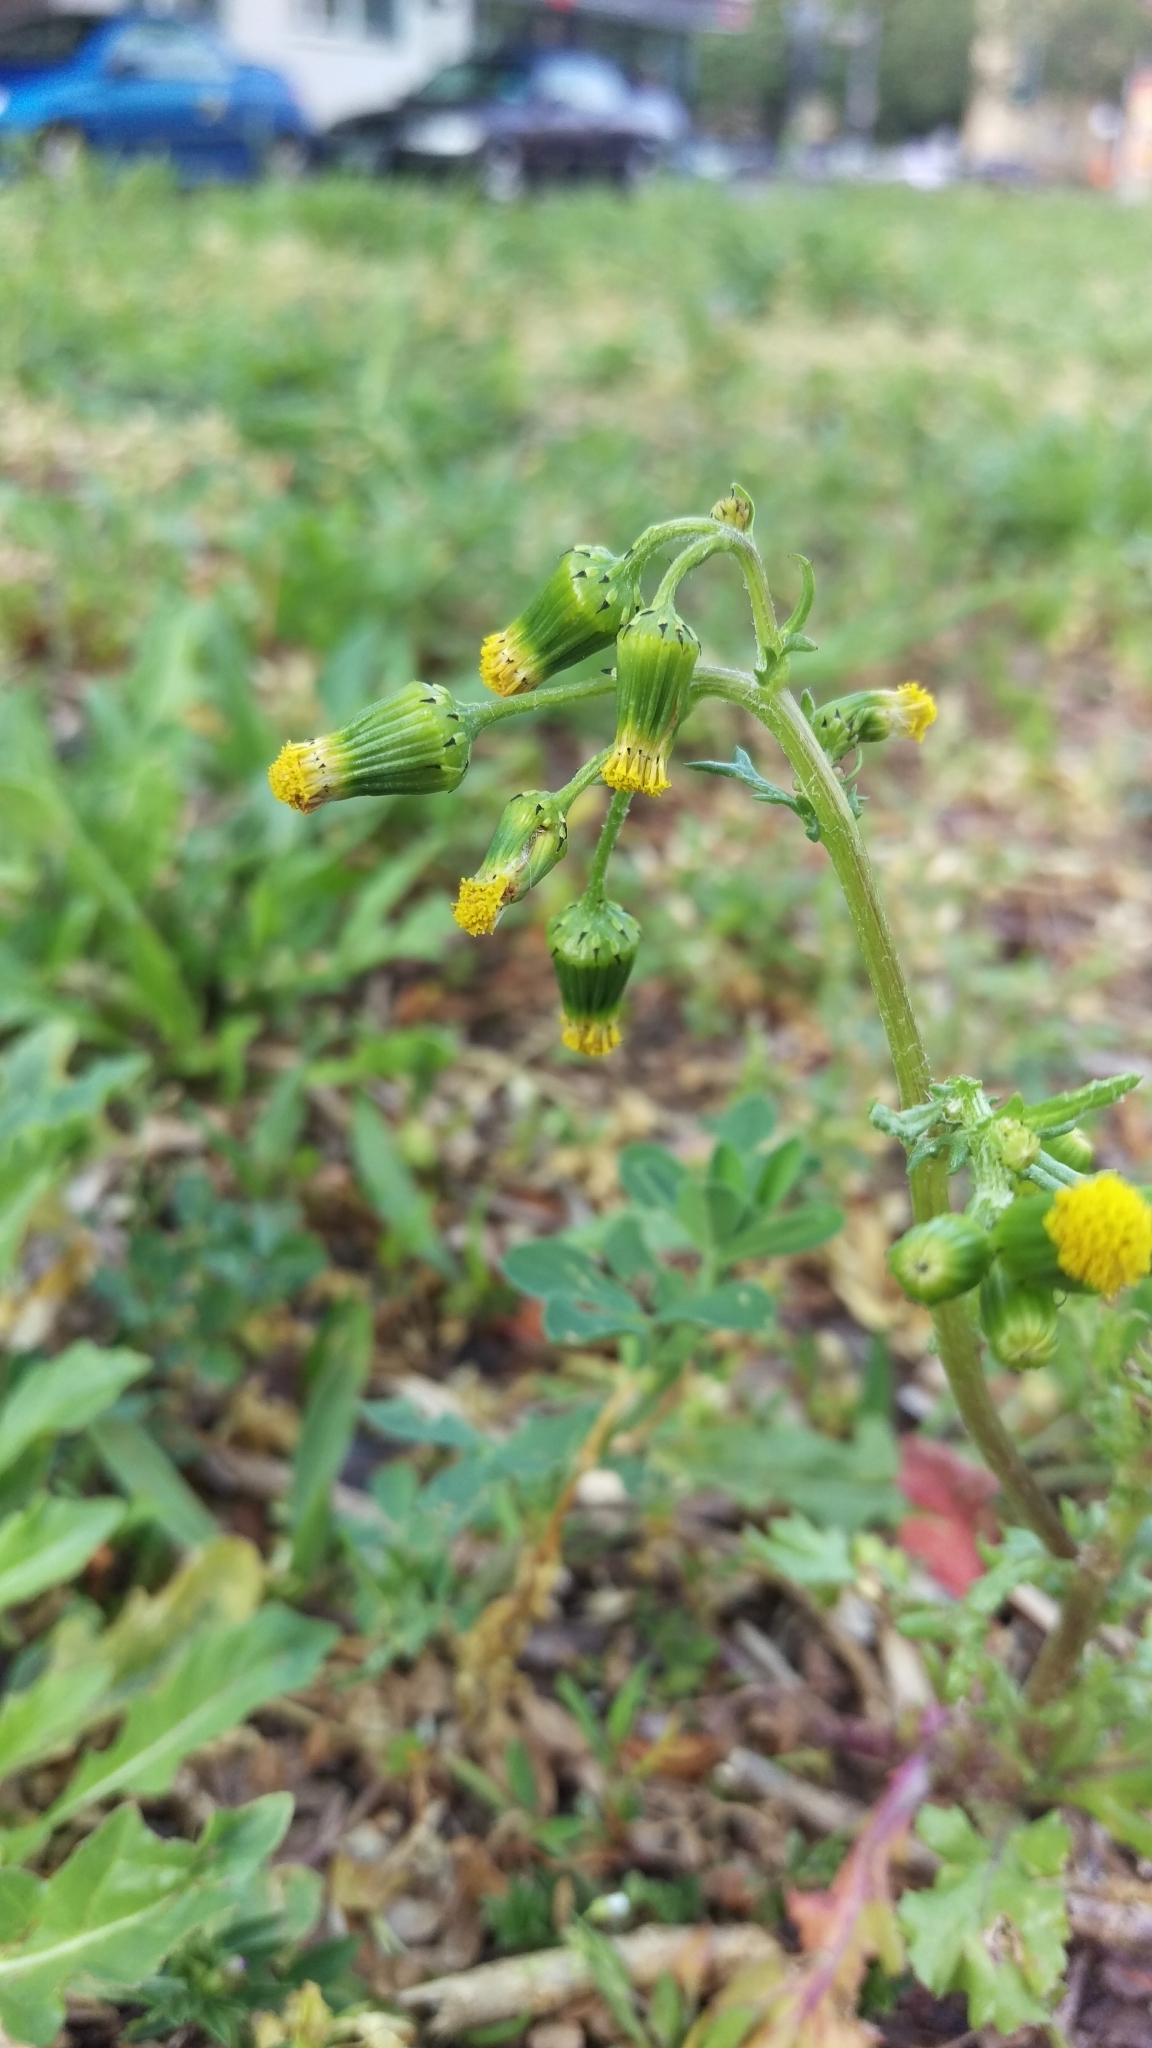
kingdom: Plantae
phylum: Tracheophyta
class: Magnoliopsida
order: Asterales
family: Asteraceae
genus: Senecio
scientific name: Senecio vulgaris
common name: Old-man-in-the-spring
